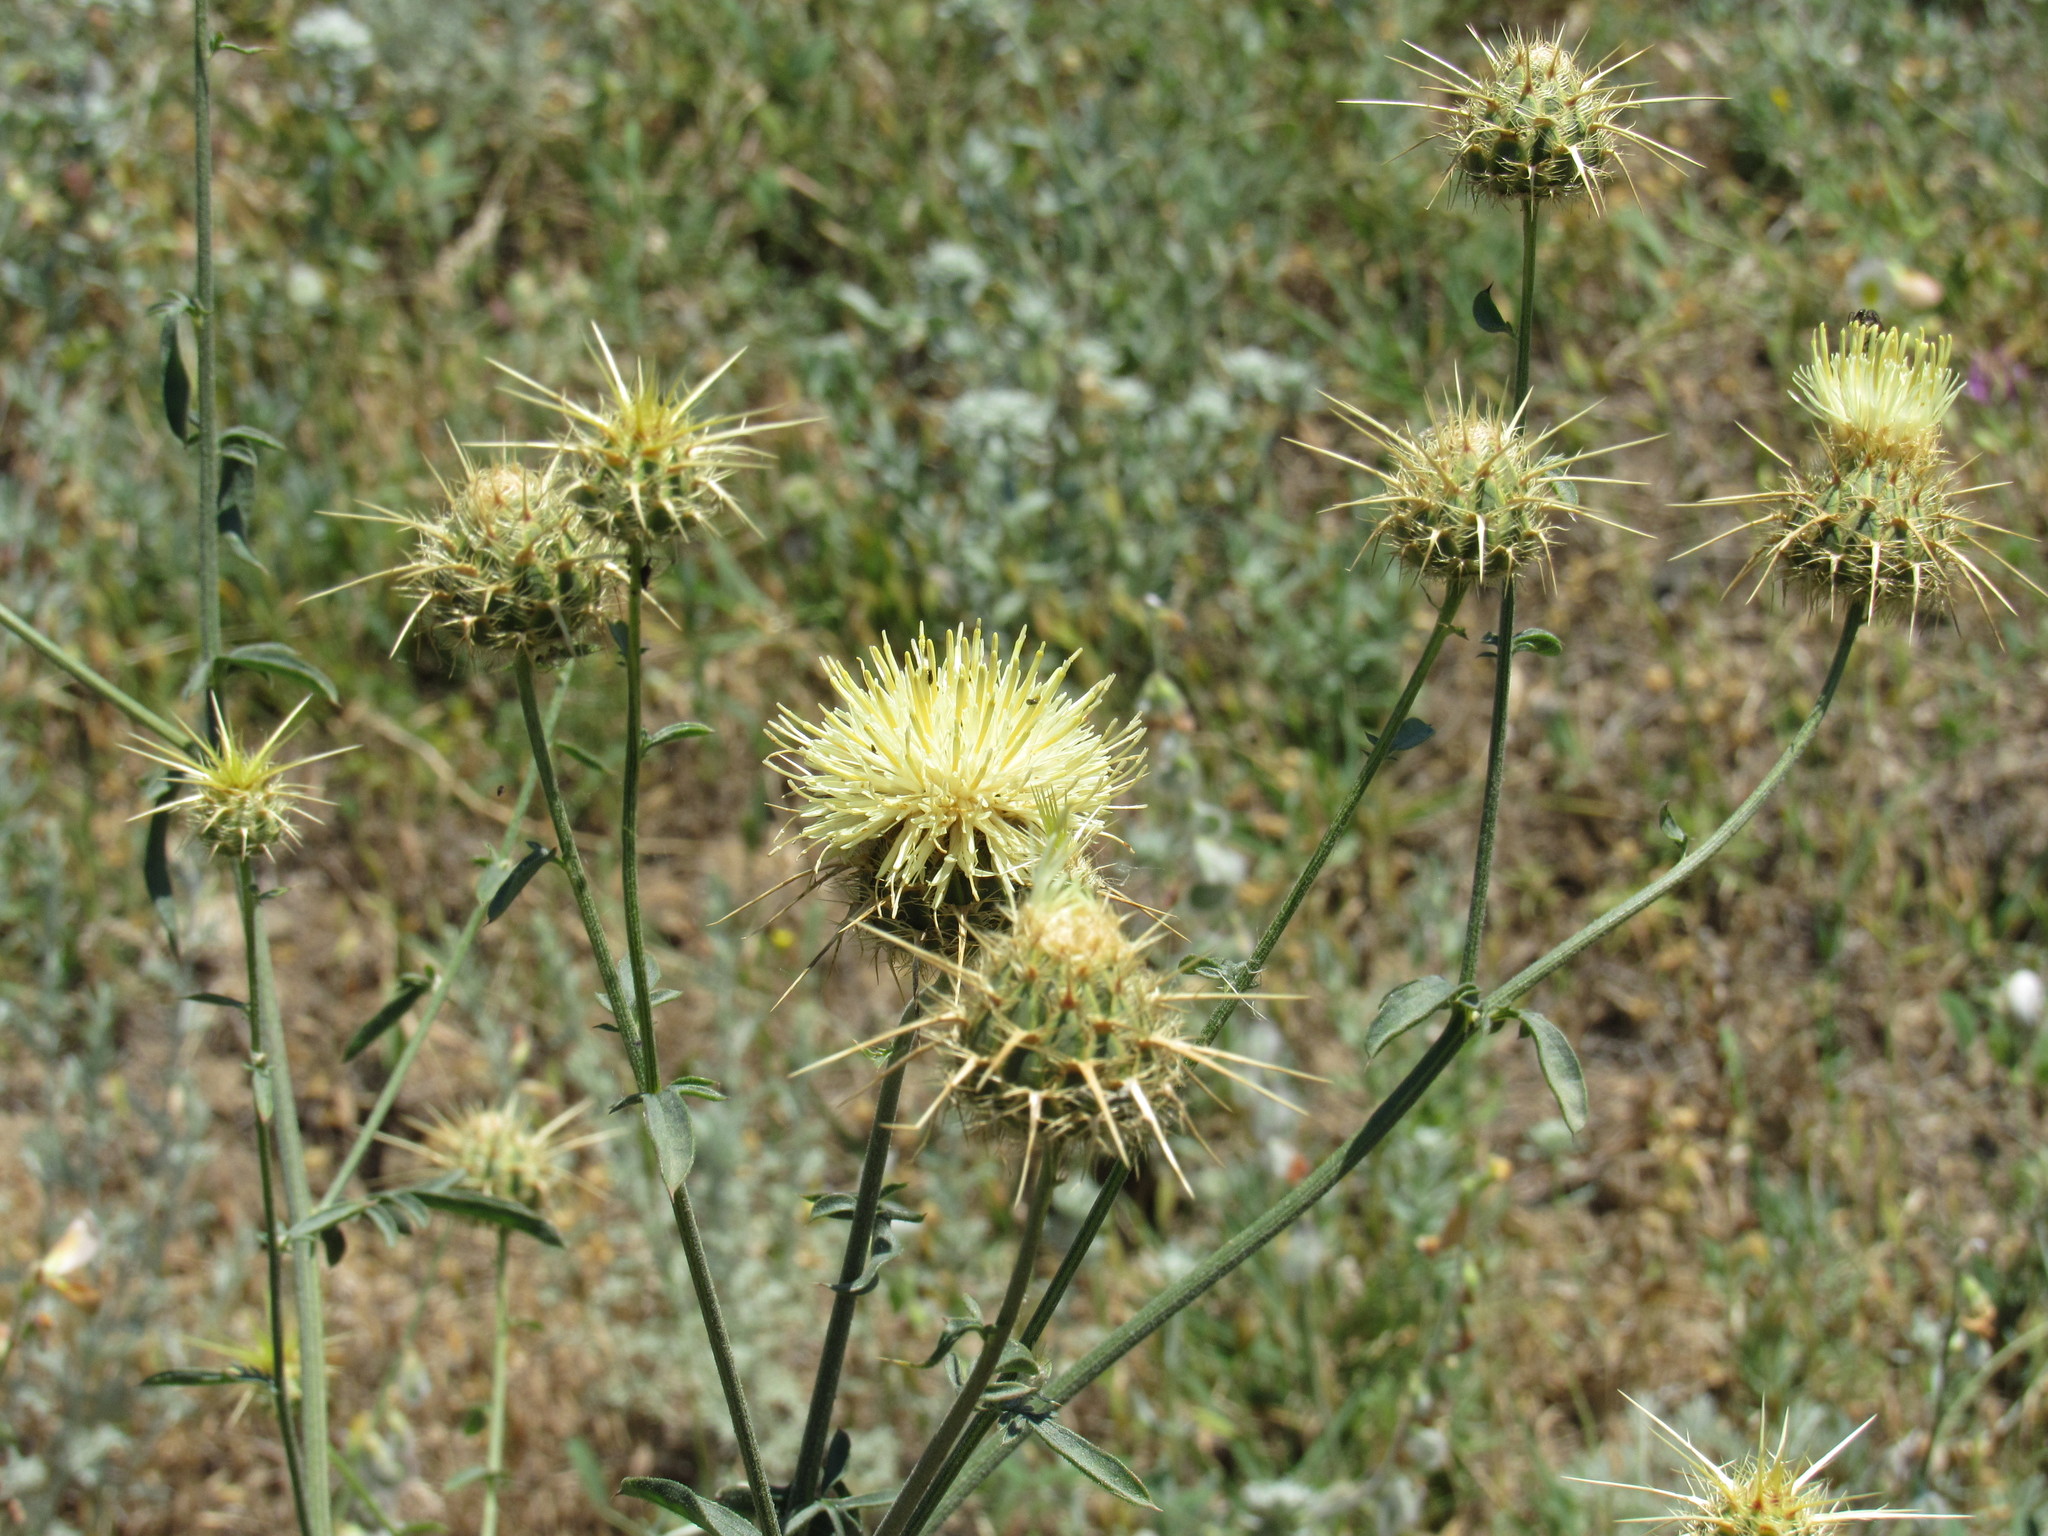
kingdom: Plantae
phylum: Tracheophyta
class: Magnoliopsida
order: Asterales
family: Asteraceae
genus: Centaurea
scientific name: Centaurea reflexa
